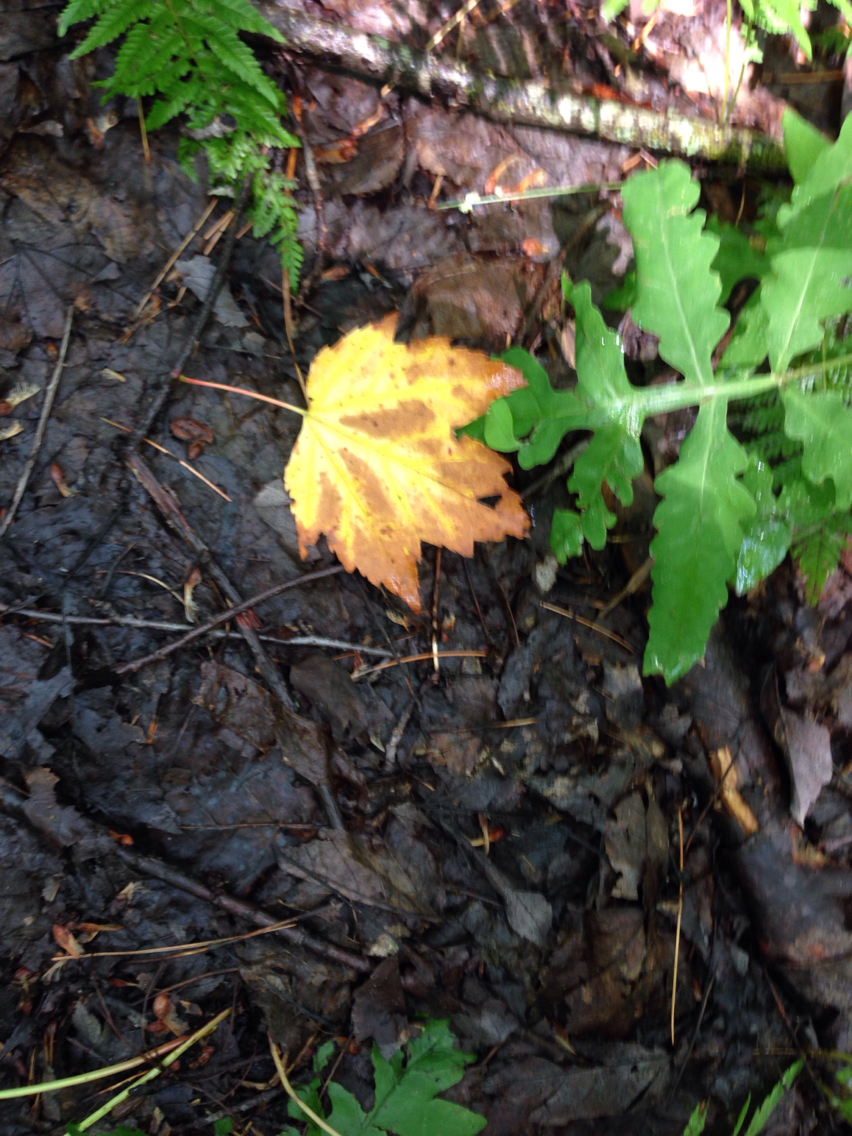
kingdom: Plantae
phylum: Tracheophyta
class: Magnoliopsida
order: Sapindales
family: Sapindaceae
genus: Acer
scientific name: Acer rubrum
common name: Red maple
